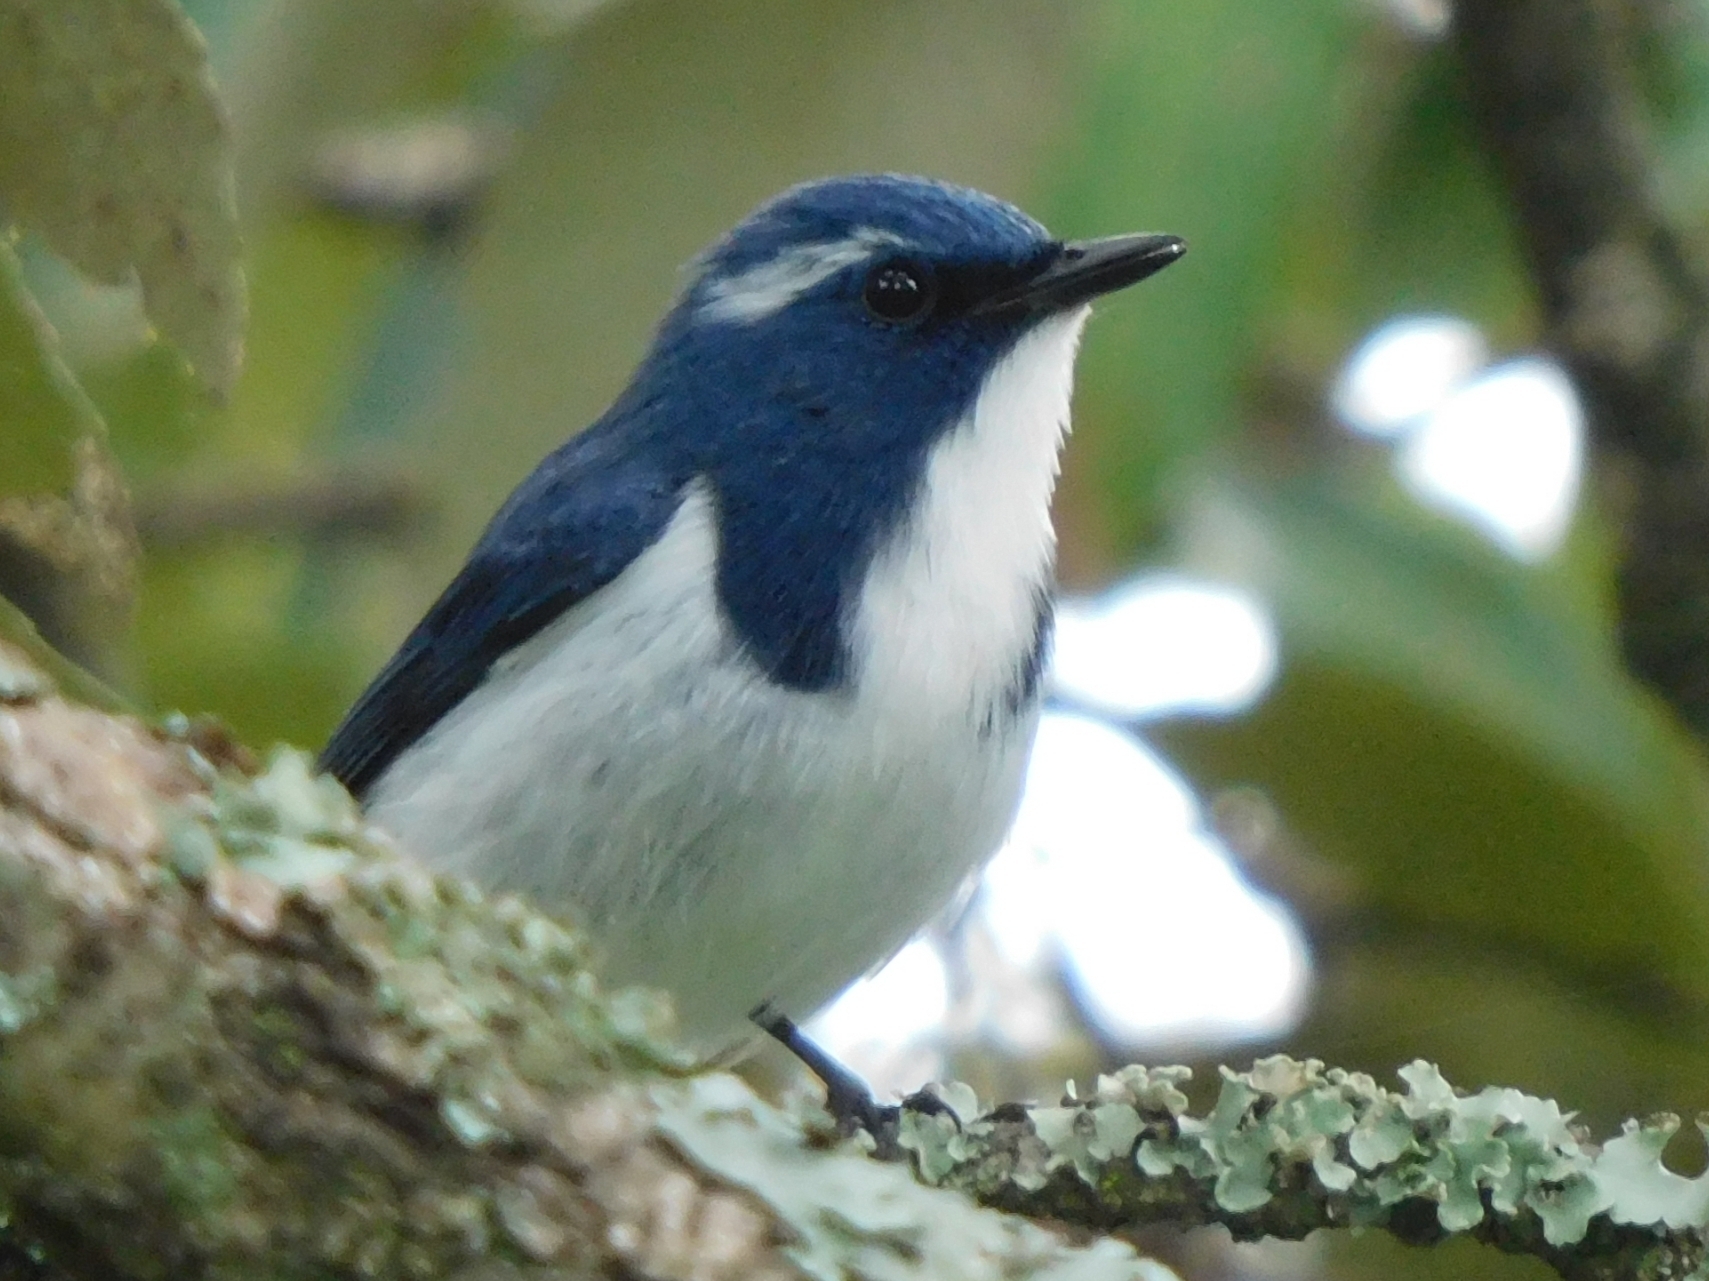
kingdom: Animalia
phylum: Chordata
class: Aves
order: Passeriformes
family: Muscicapidae
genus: Ficedula
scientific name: Ficedula superciliaris
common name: Ultramarine flycatcher
